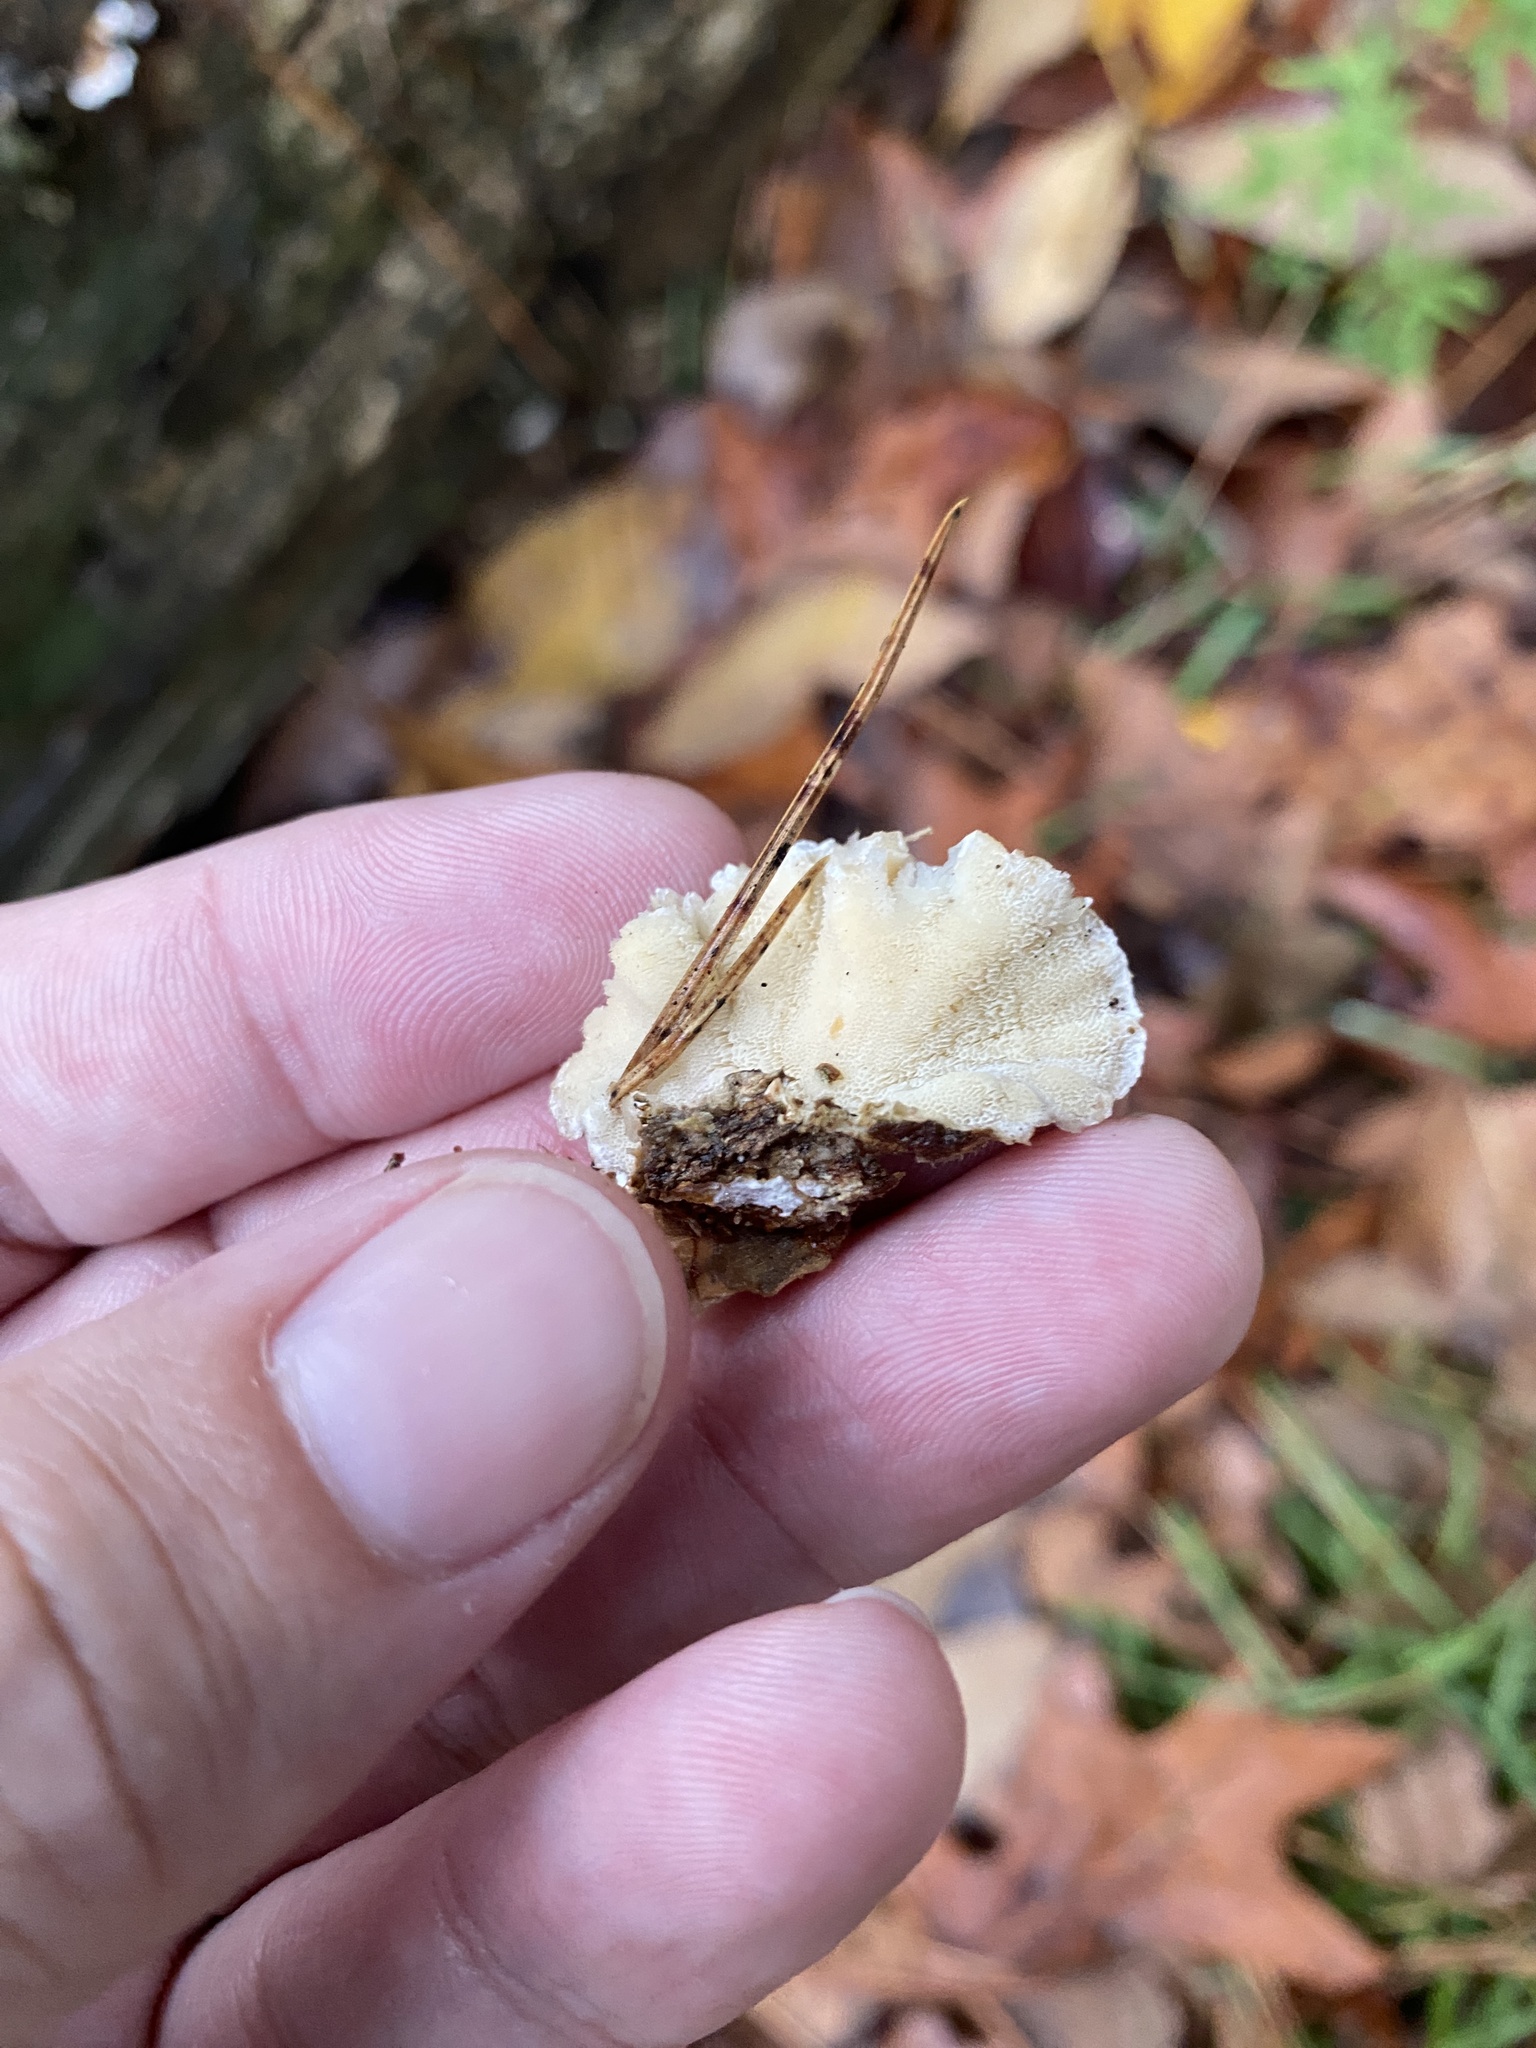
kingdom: Fungi
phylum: Basidiomycota
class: Agaricomycetes
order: Polyporales
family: Polyporaceae
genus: Trametes
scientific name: Trametes versicolor
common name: Turkeytail
